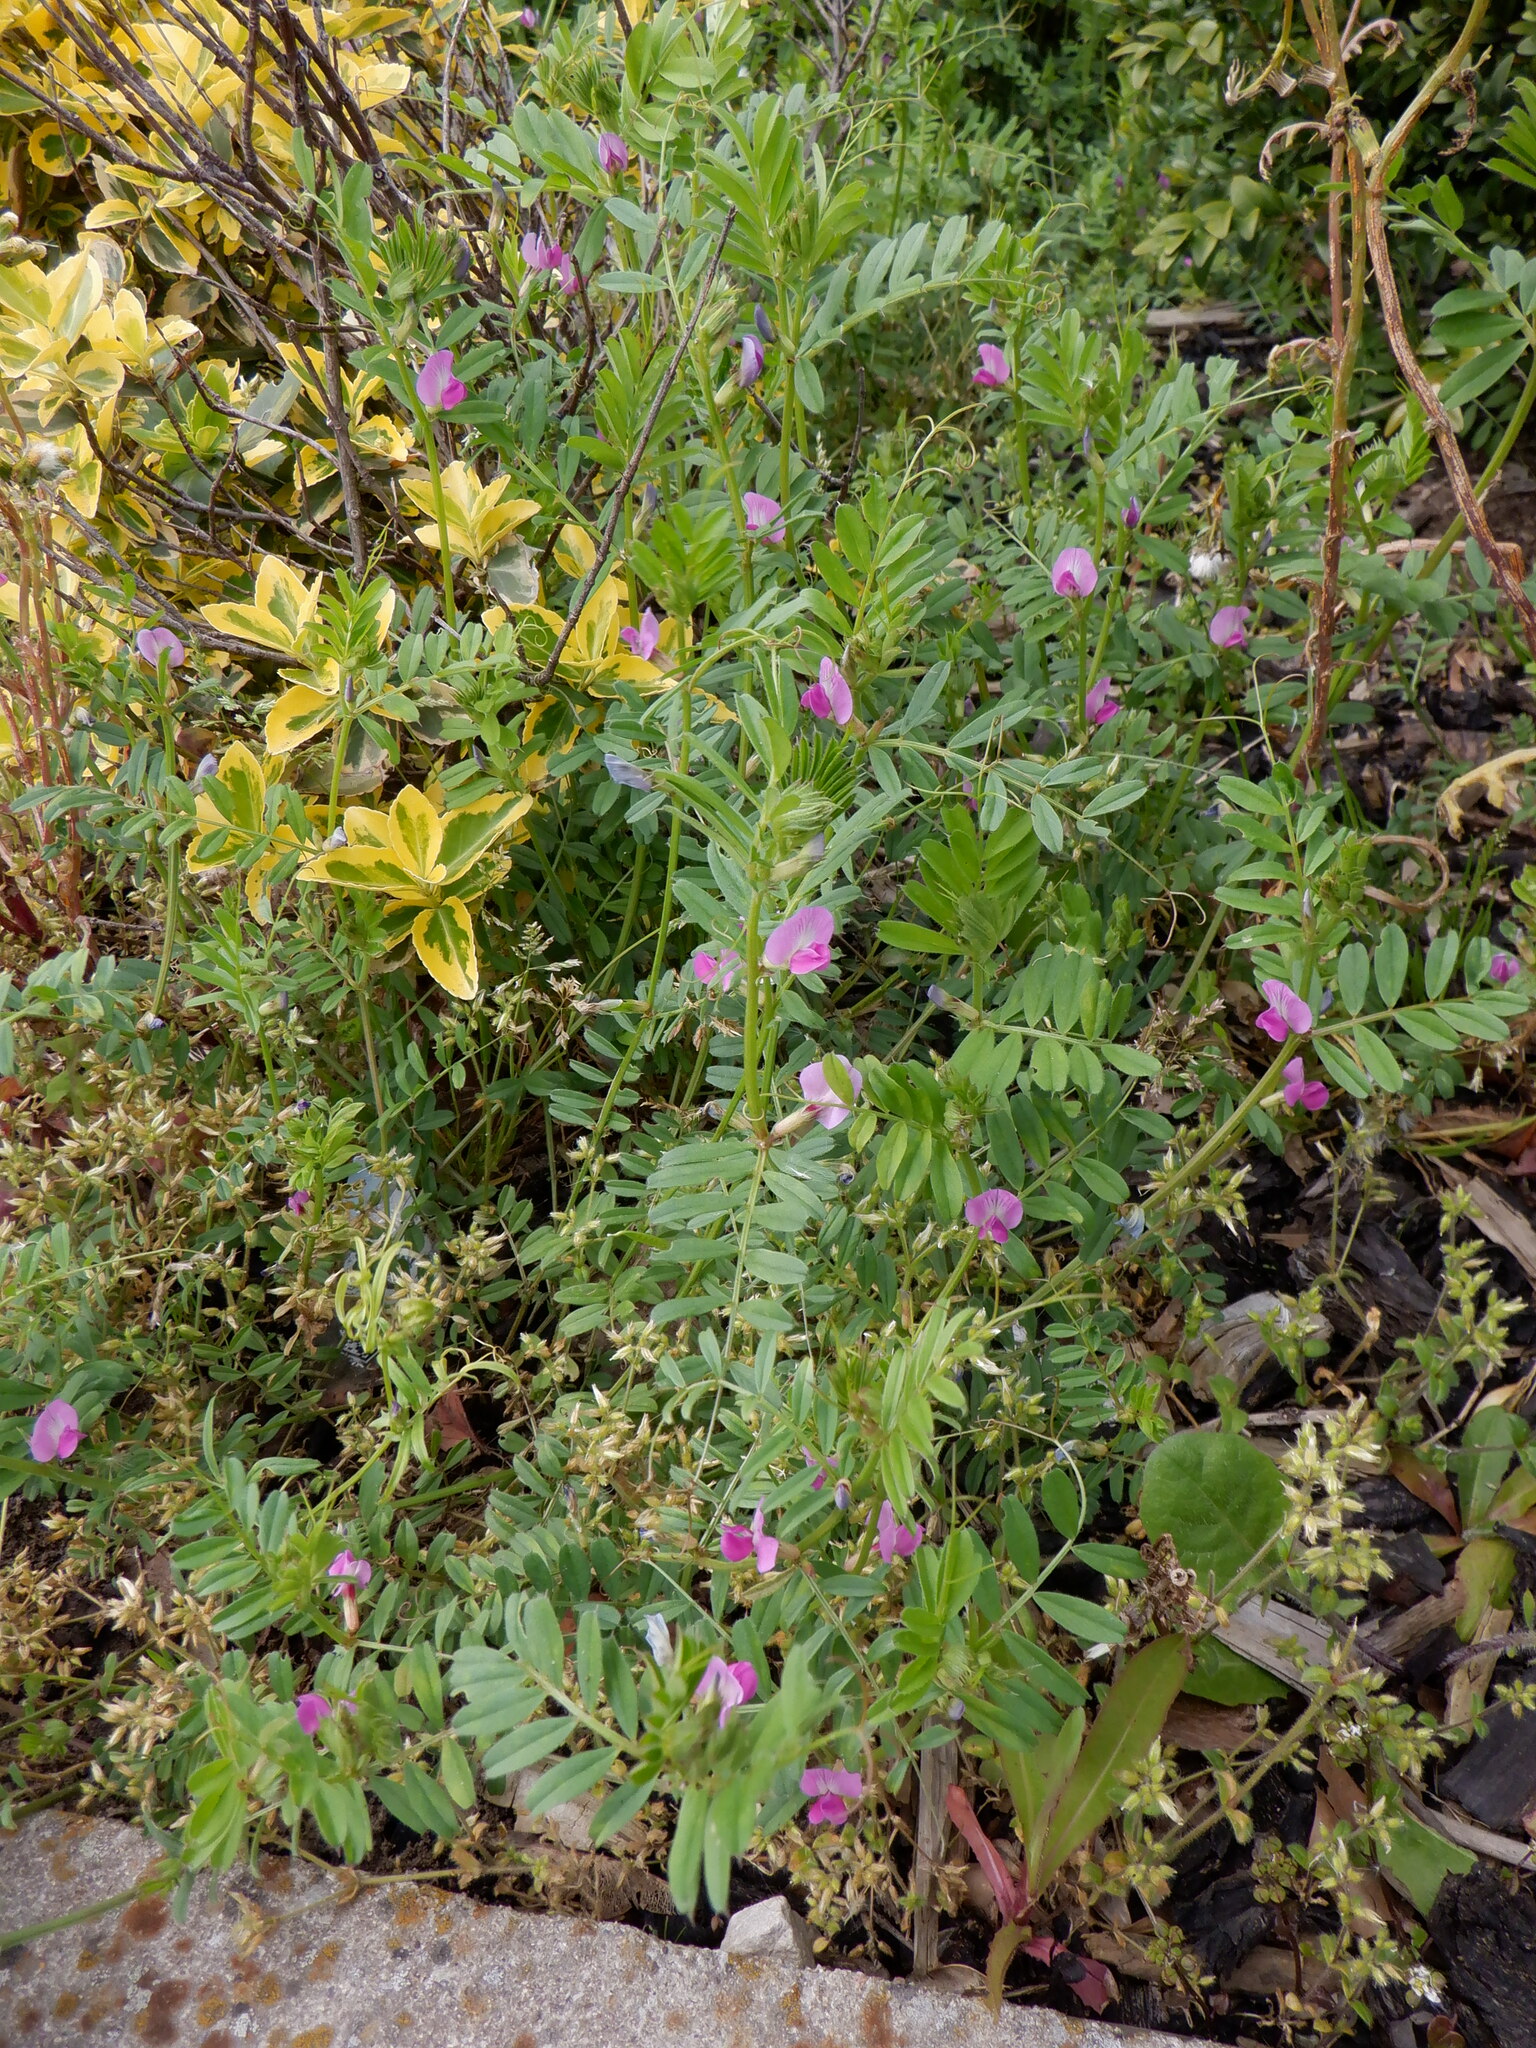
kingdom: Plantae
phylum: Tracheophyta
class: Magnoliopsida
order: Fabales
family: Fabaceae
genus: Vicia
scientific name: Vicia sativa
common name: Garden vetch
